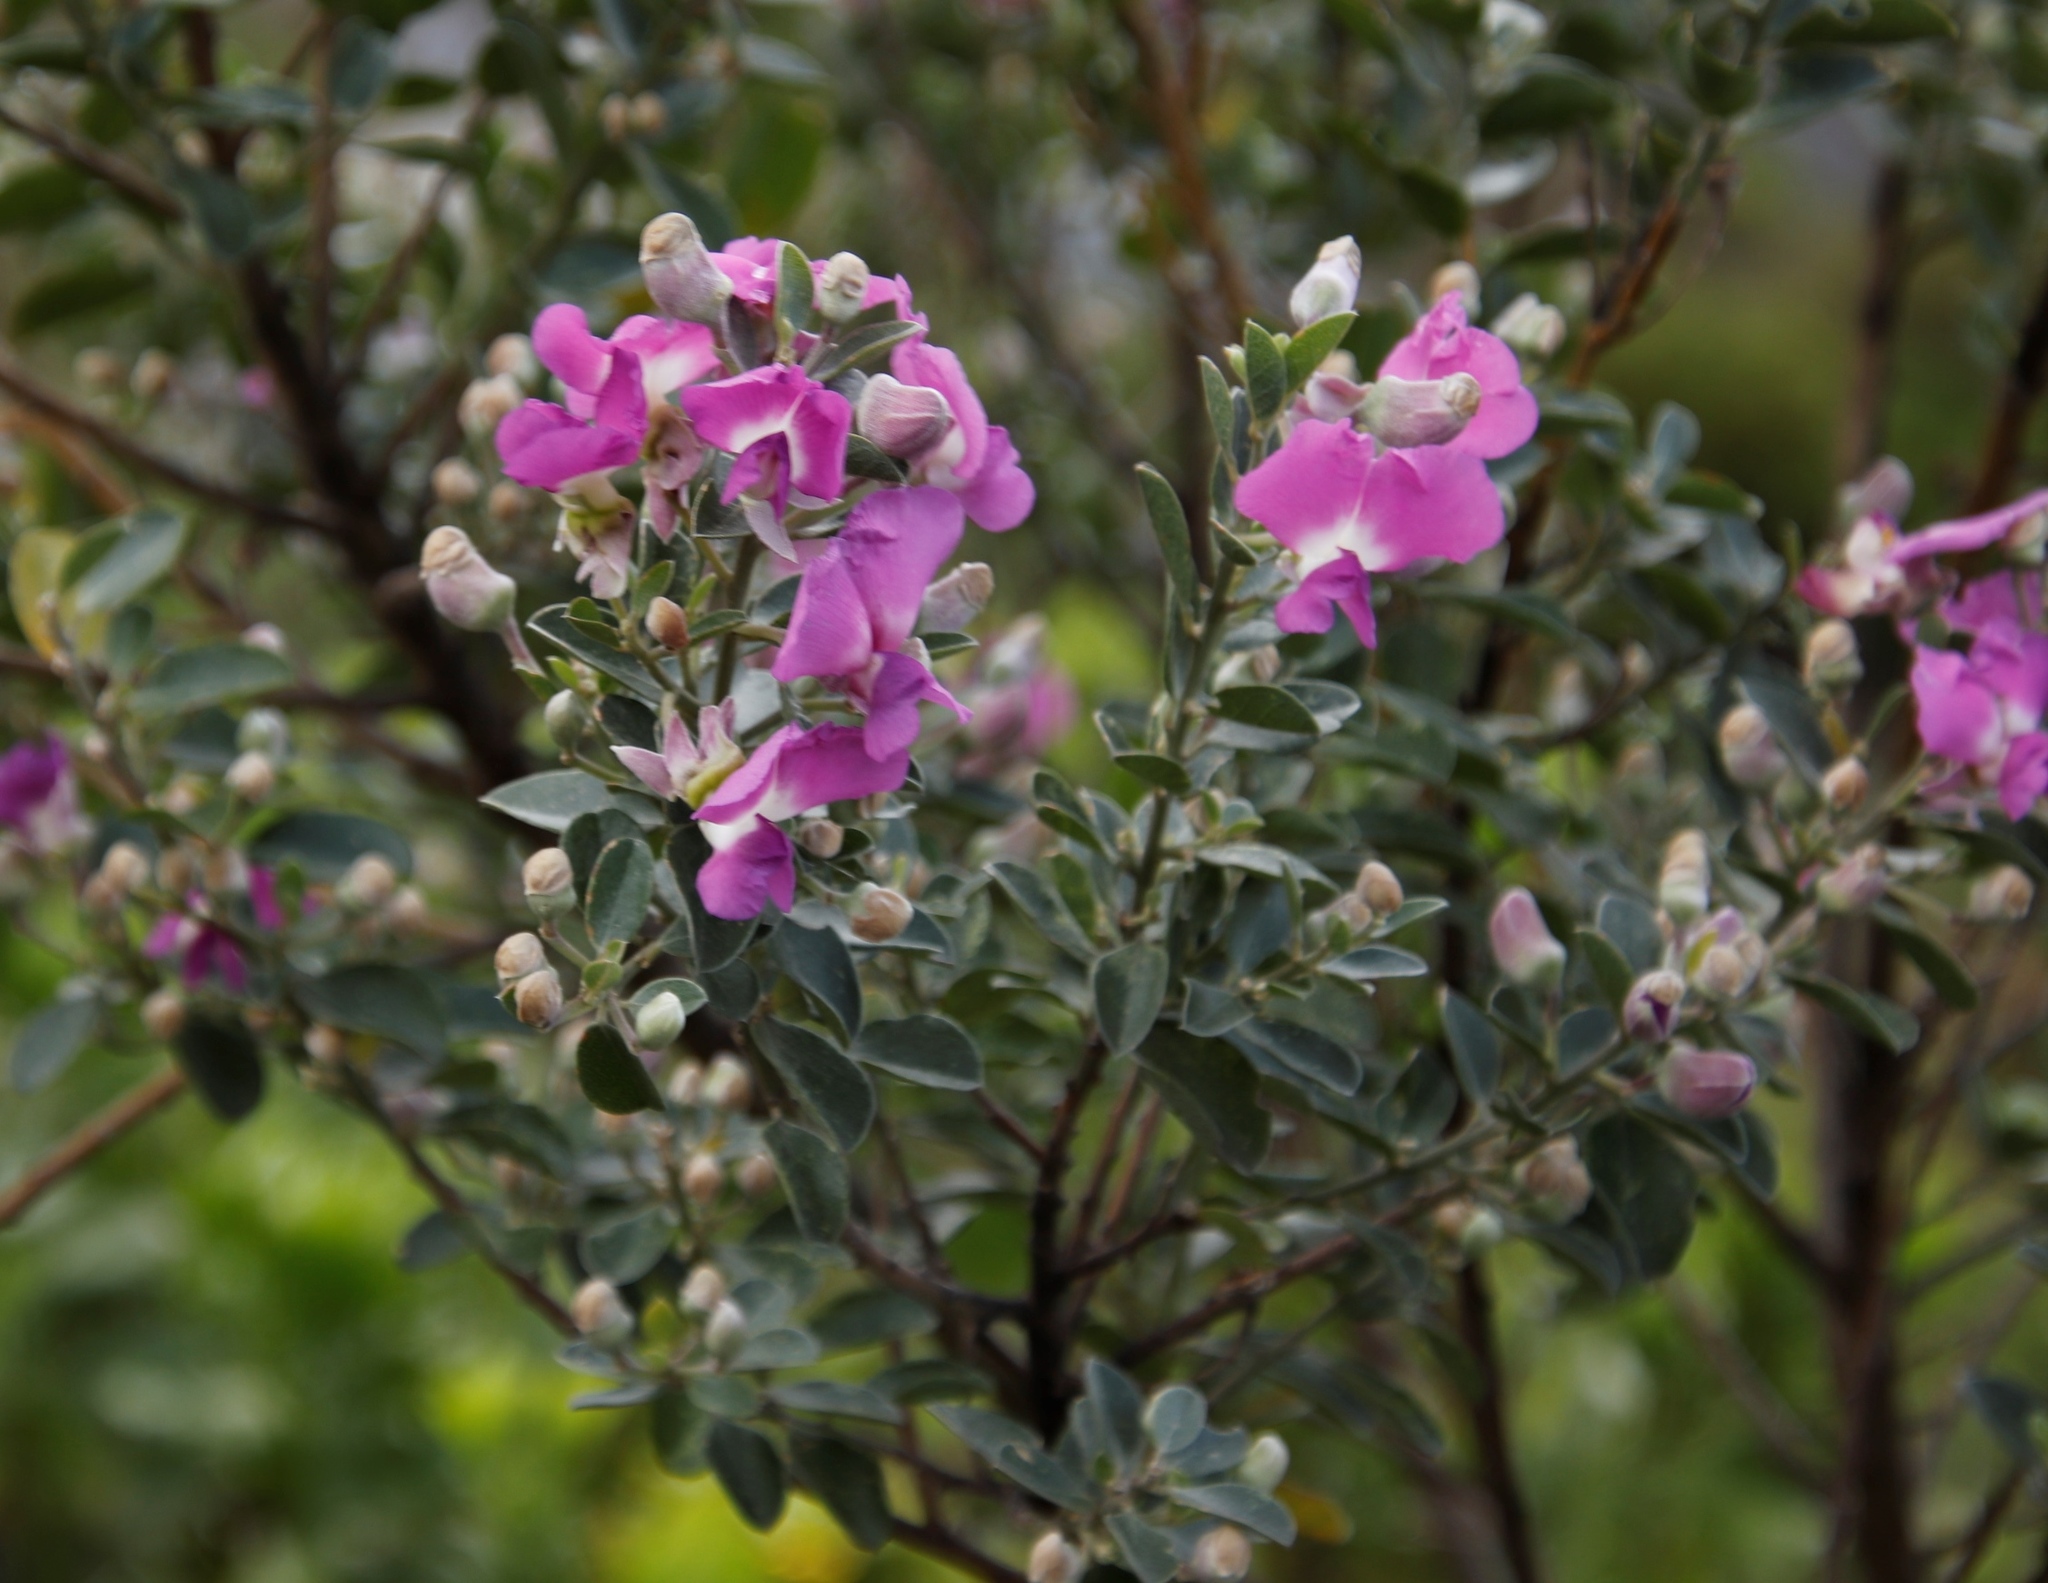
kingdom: Plantae
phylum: Tracheophyta
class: Magnoliopsida
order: Fabales
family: Fabaceae
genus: Podalyria
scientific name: Podalyria calyptrata
